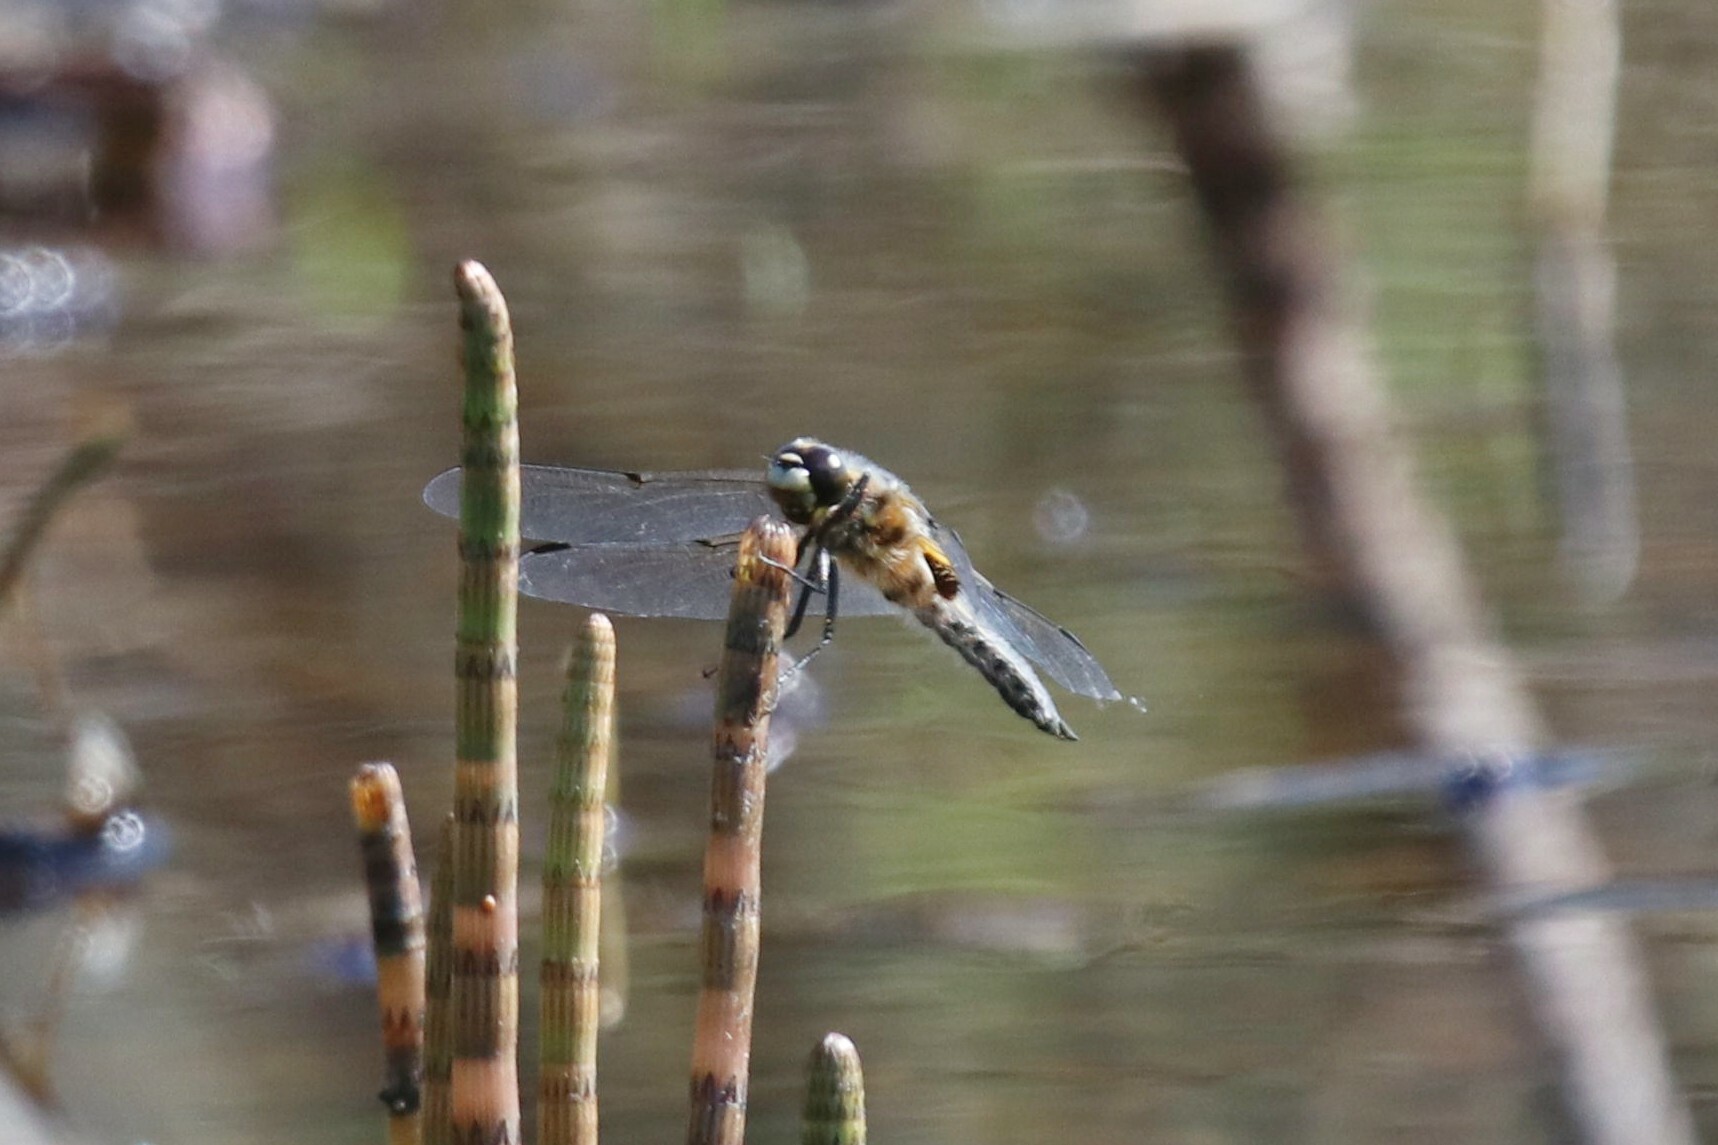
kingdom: Animalia
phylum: Arthropoda
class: Insecta
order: Odonata
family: Libellulidae
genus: Libellula
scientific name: Libellula quadrimaculata
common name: Four-spotted chaser
